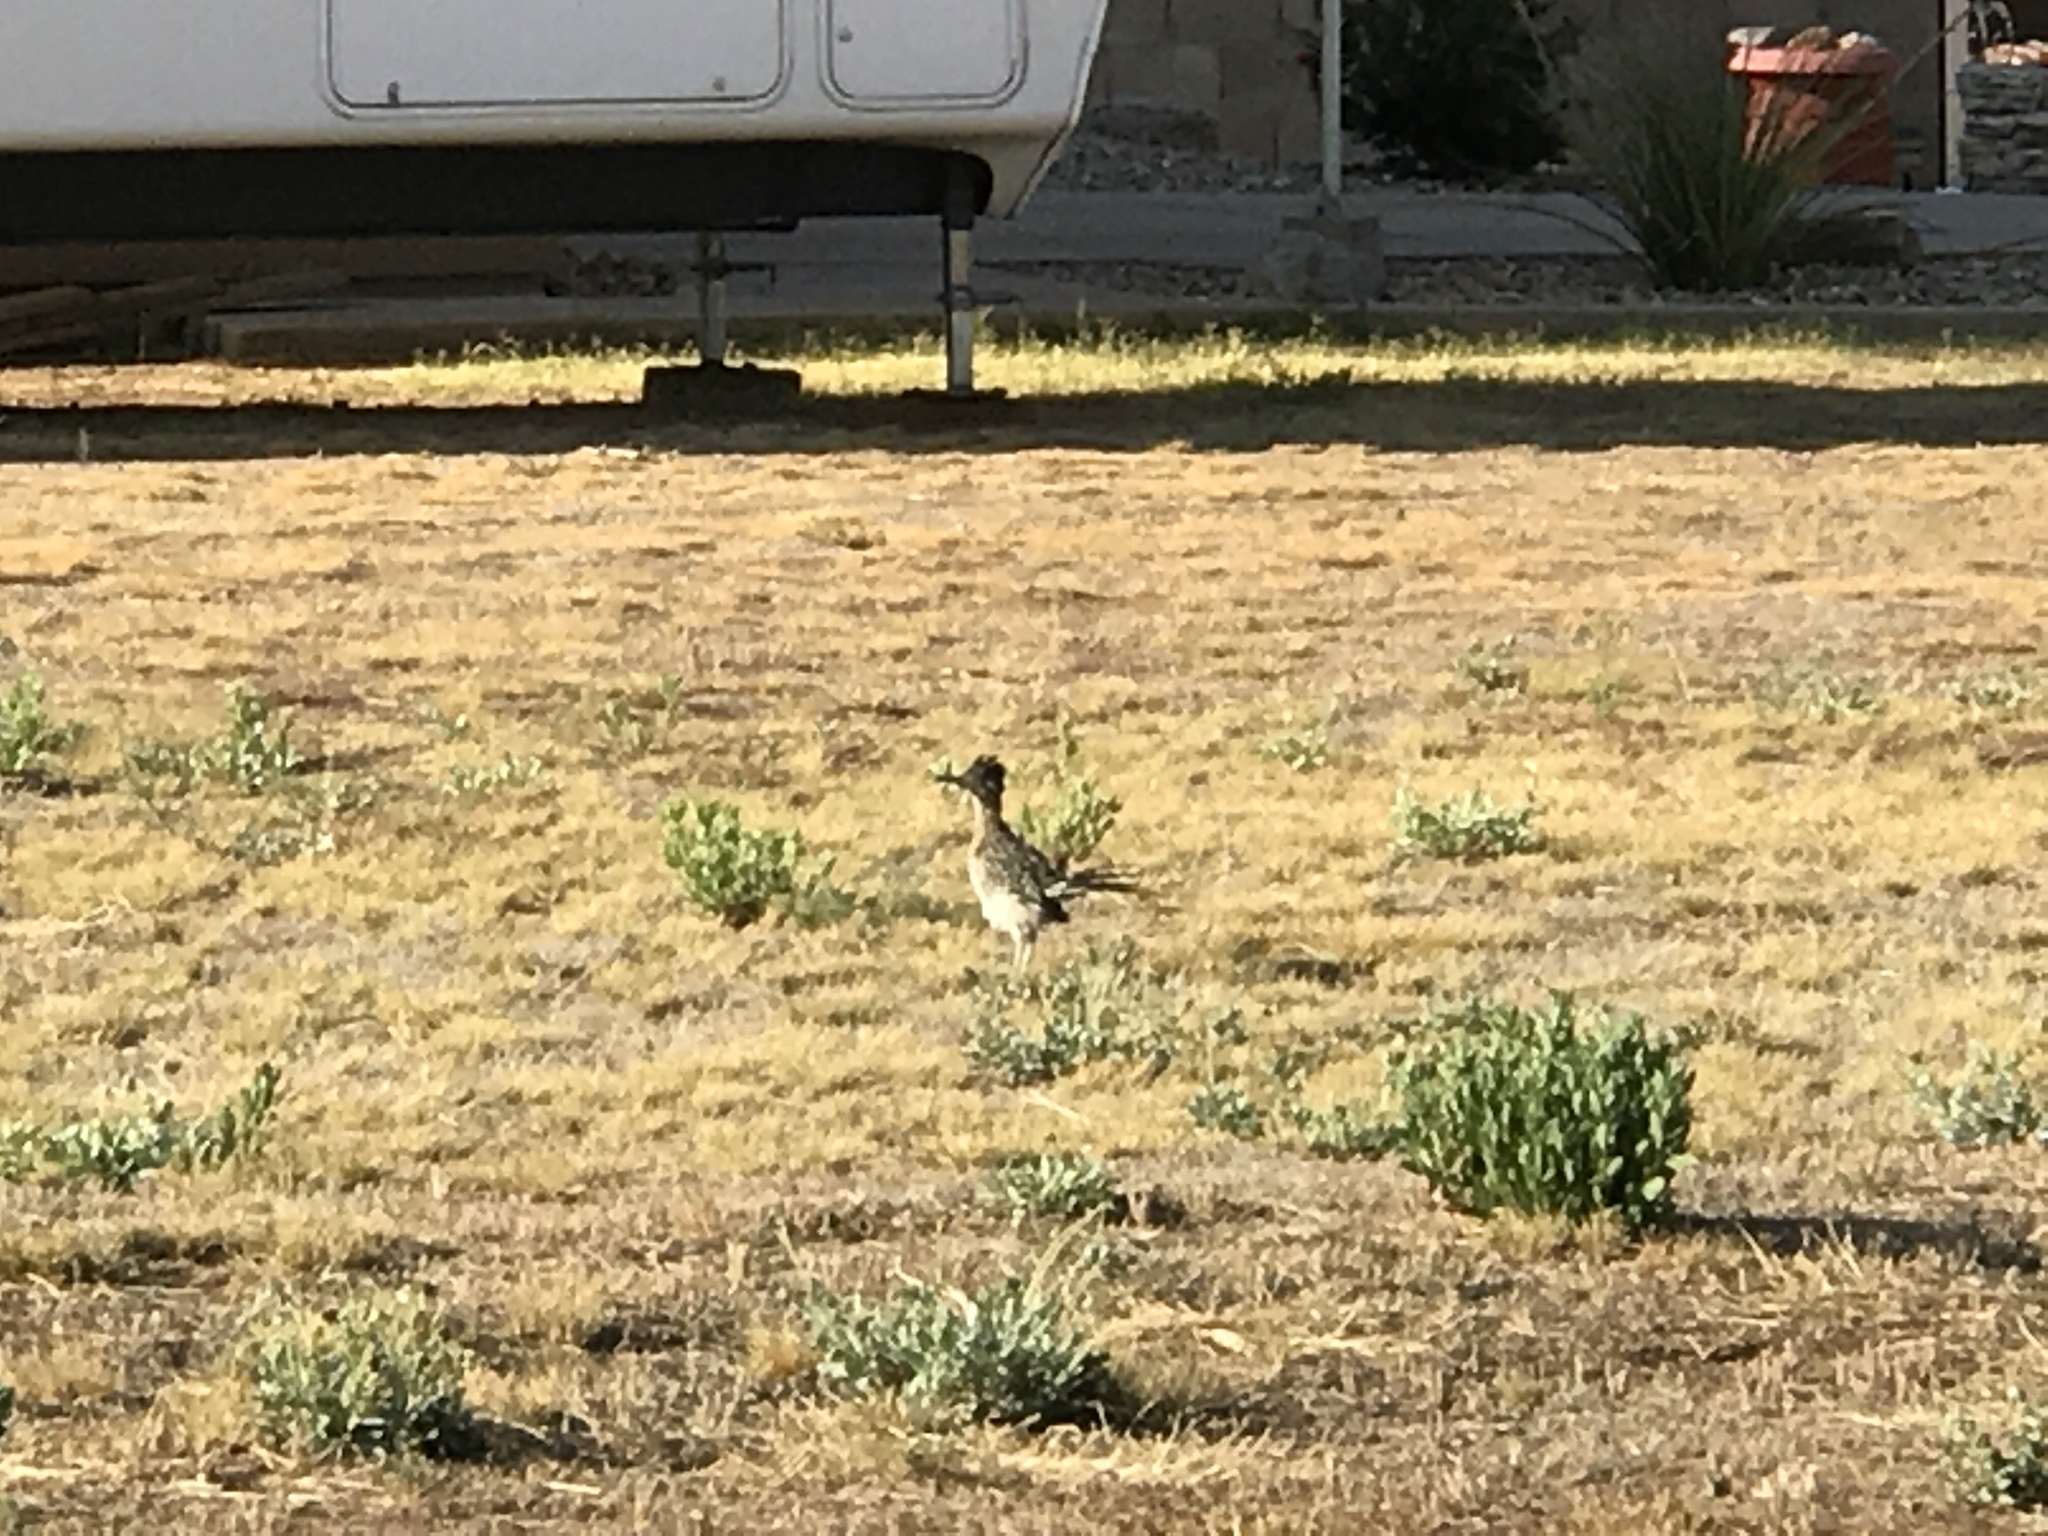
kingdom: Animalia
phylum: Chordata
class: Aves
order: Cuculiformes
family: Cuculidae
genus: Geococcyx
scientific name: Geococcyx californianus
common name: Greater roadrunner
